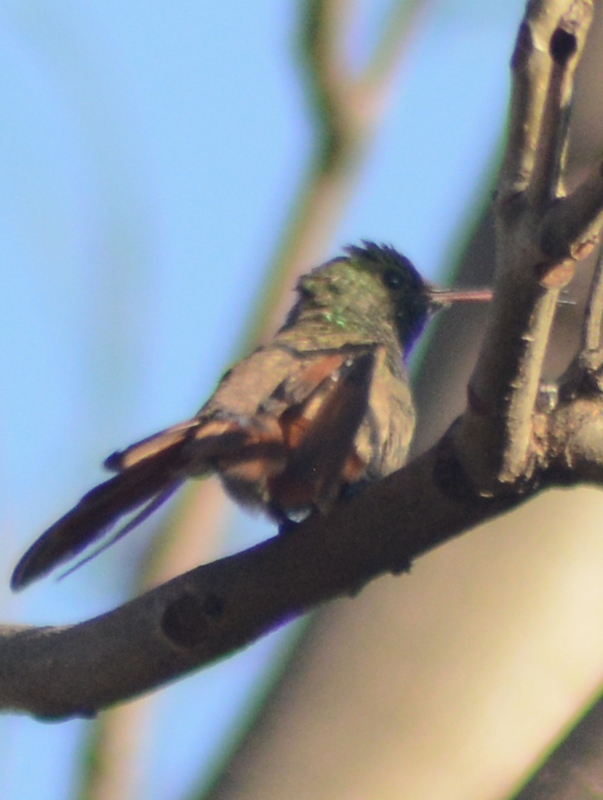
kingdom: Animalia
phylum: Chordata
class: Aves
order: Apodiformes
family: Trochilidae
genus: Saucerottia
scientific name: Saucerottia beryllina
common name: Berylline hummingbird
